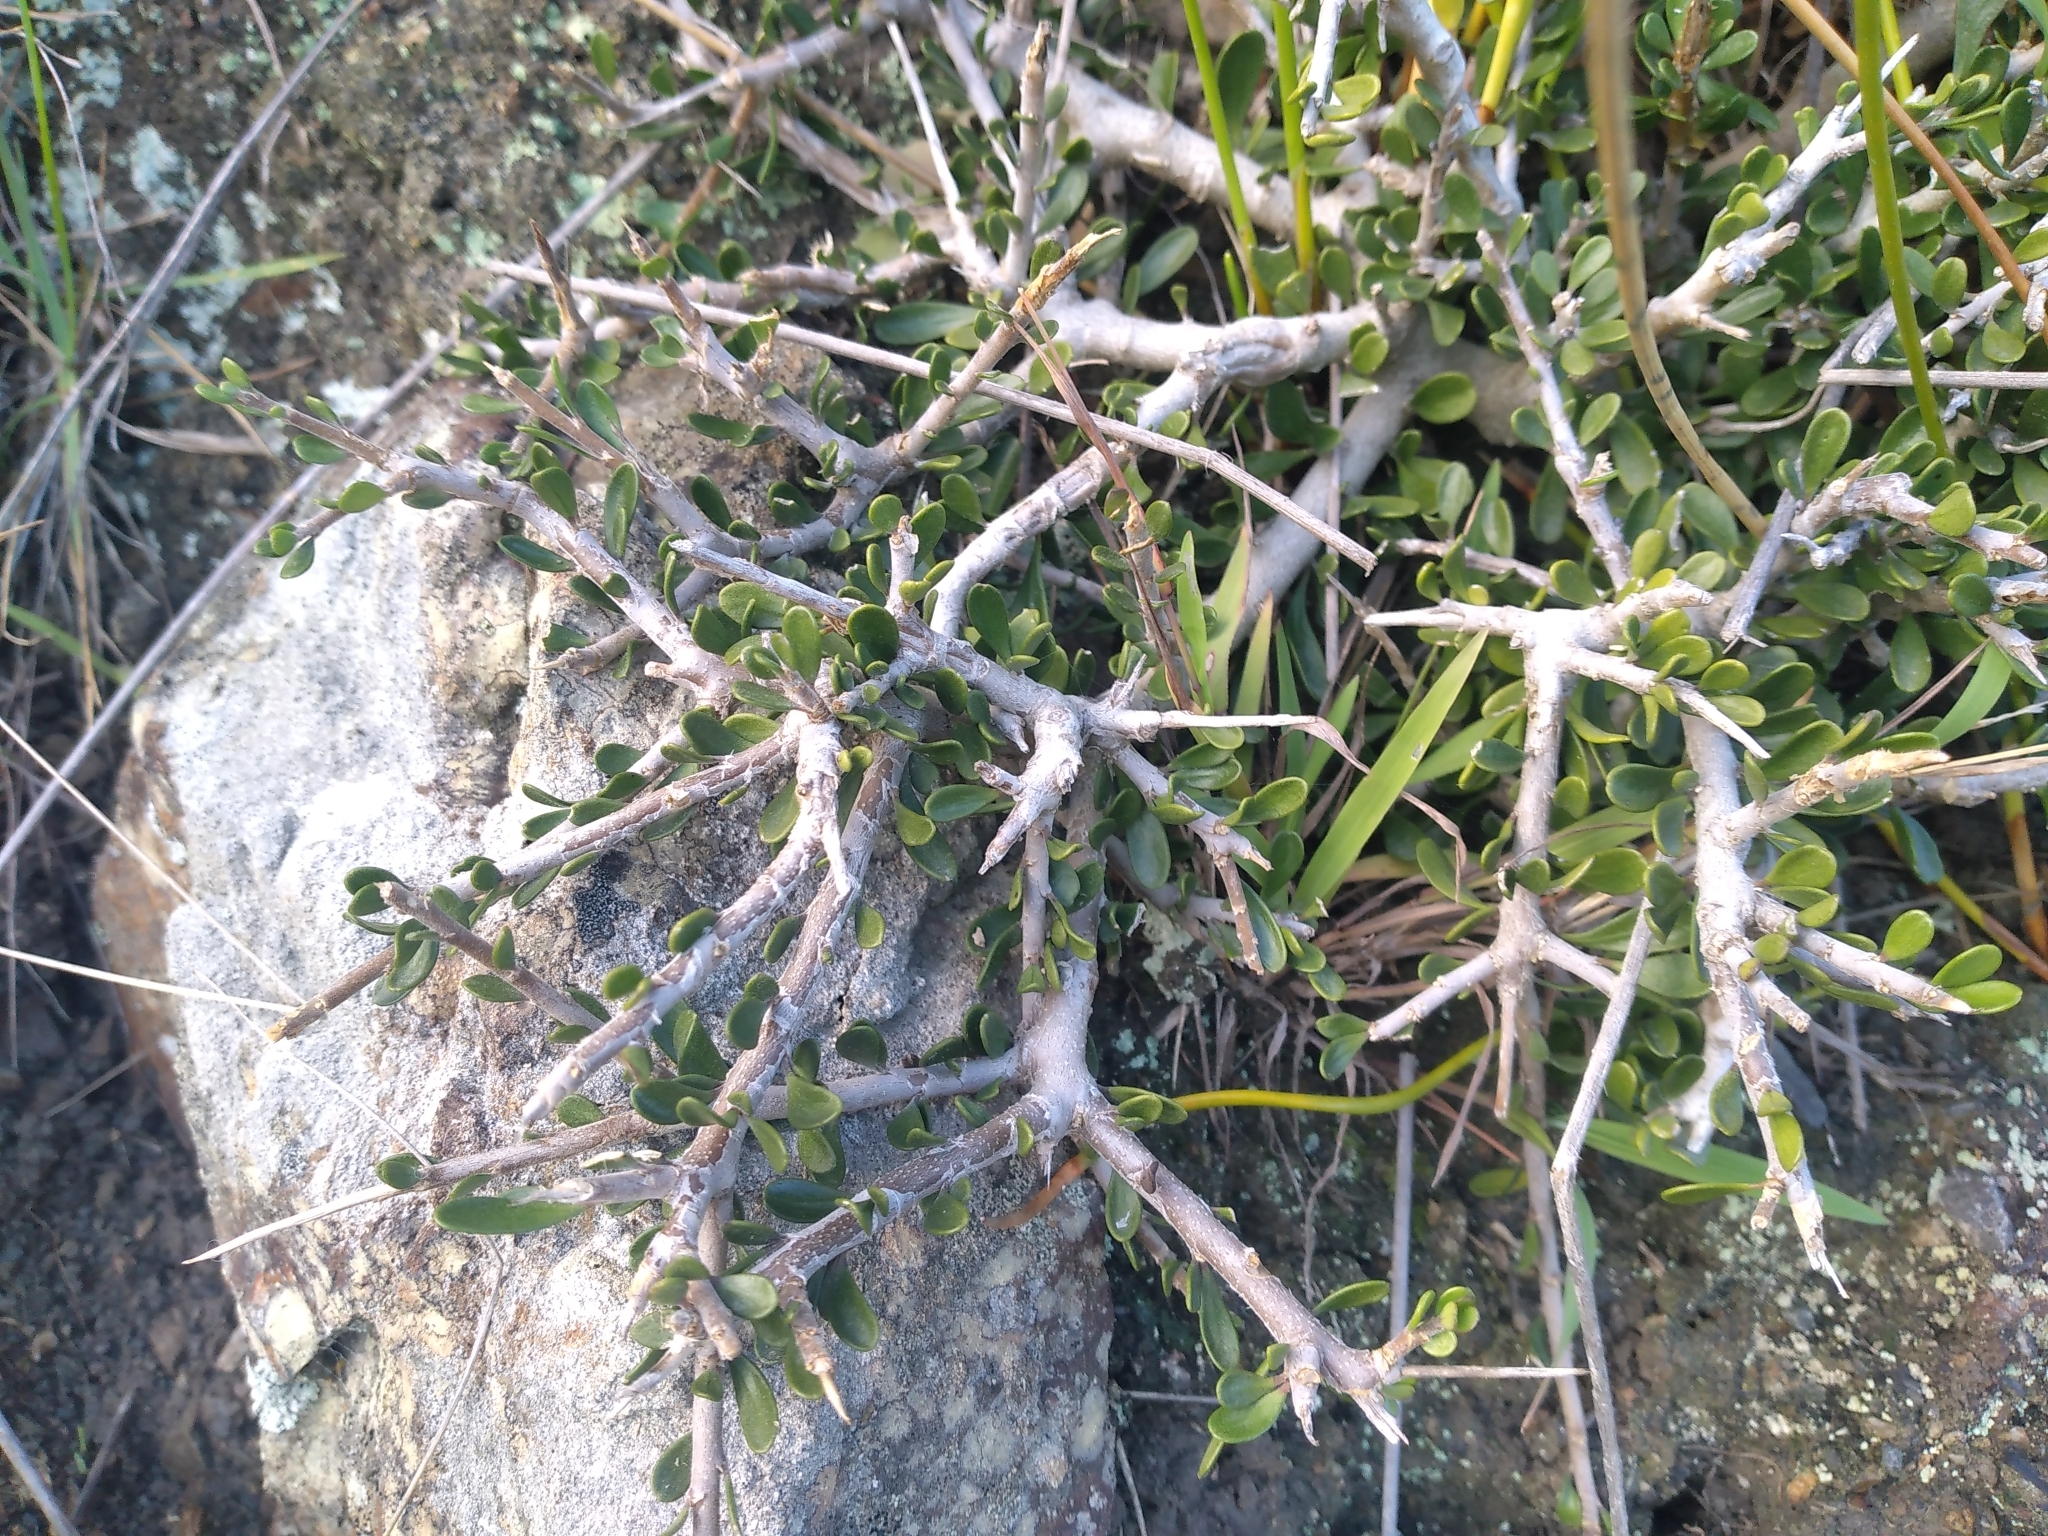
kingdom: Plantae
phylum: Tracheophyta
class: Magnoliopsida
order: Malpighiales
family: Violaceae
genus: Melicytus
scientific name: Melicytus crassifolius
